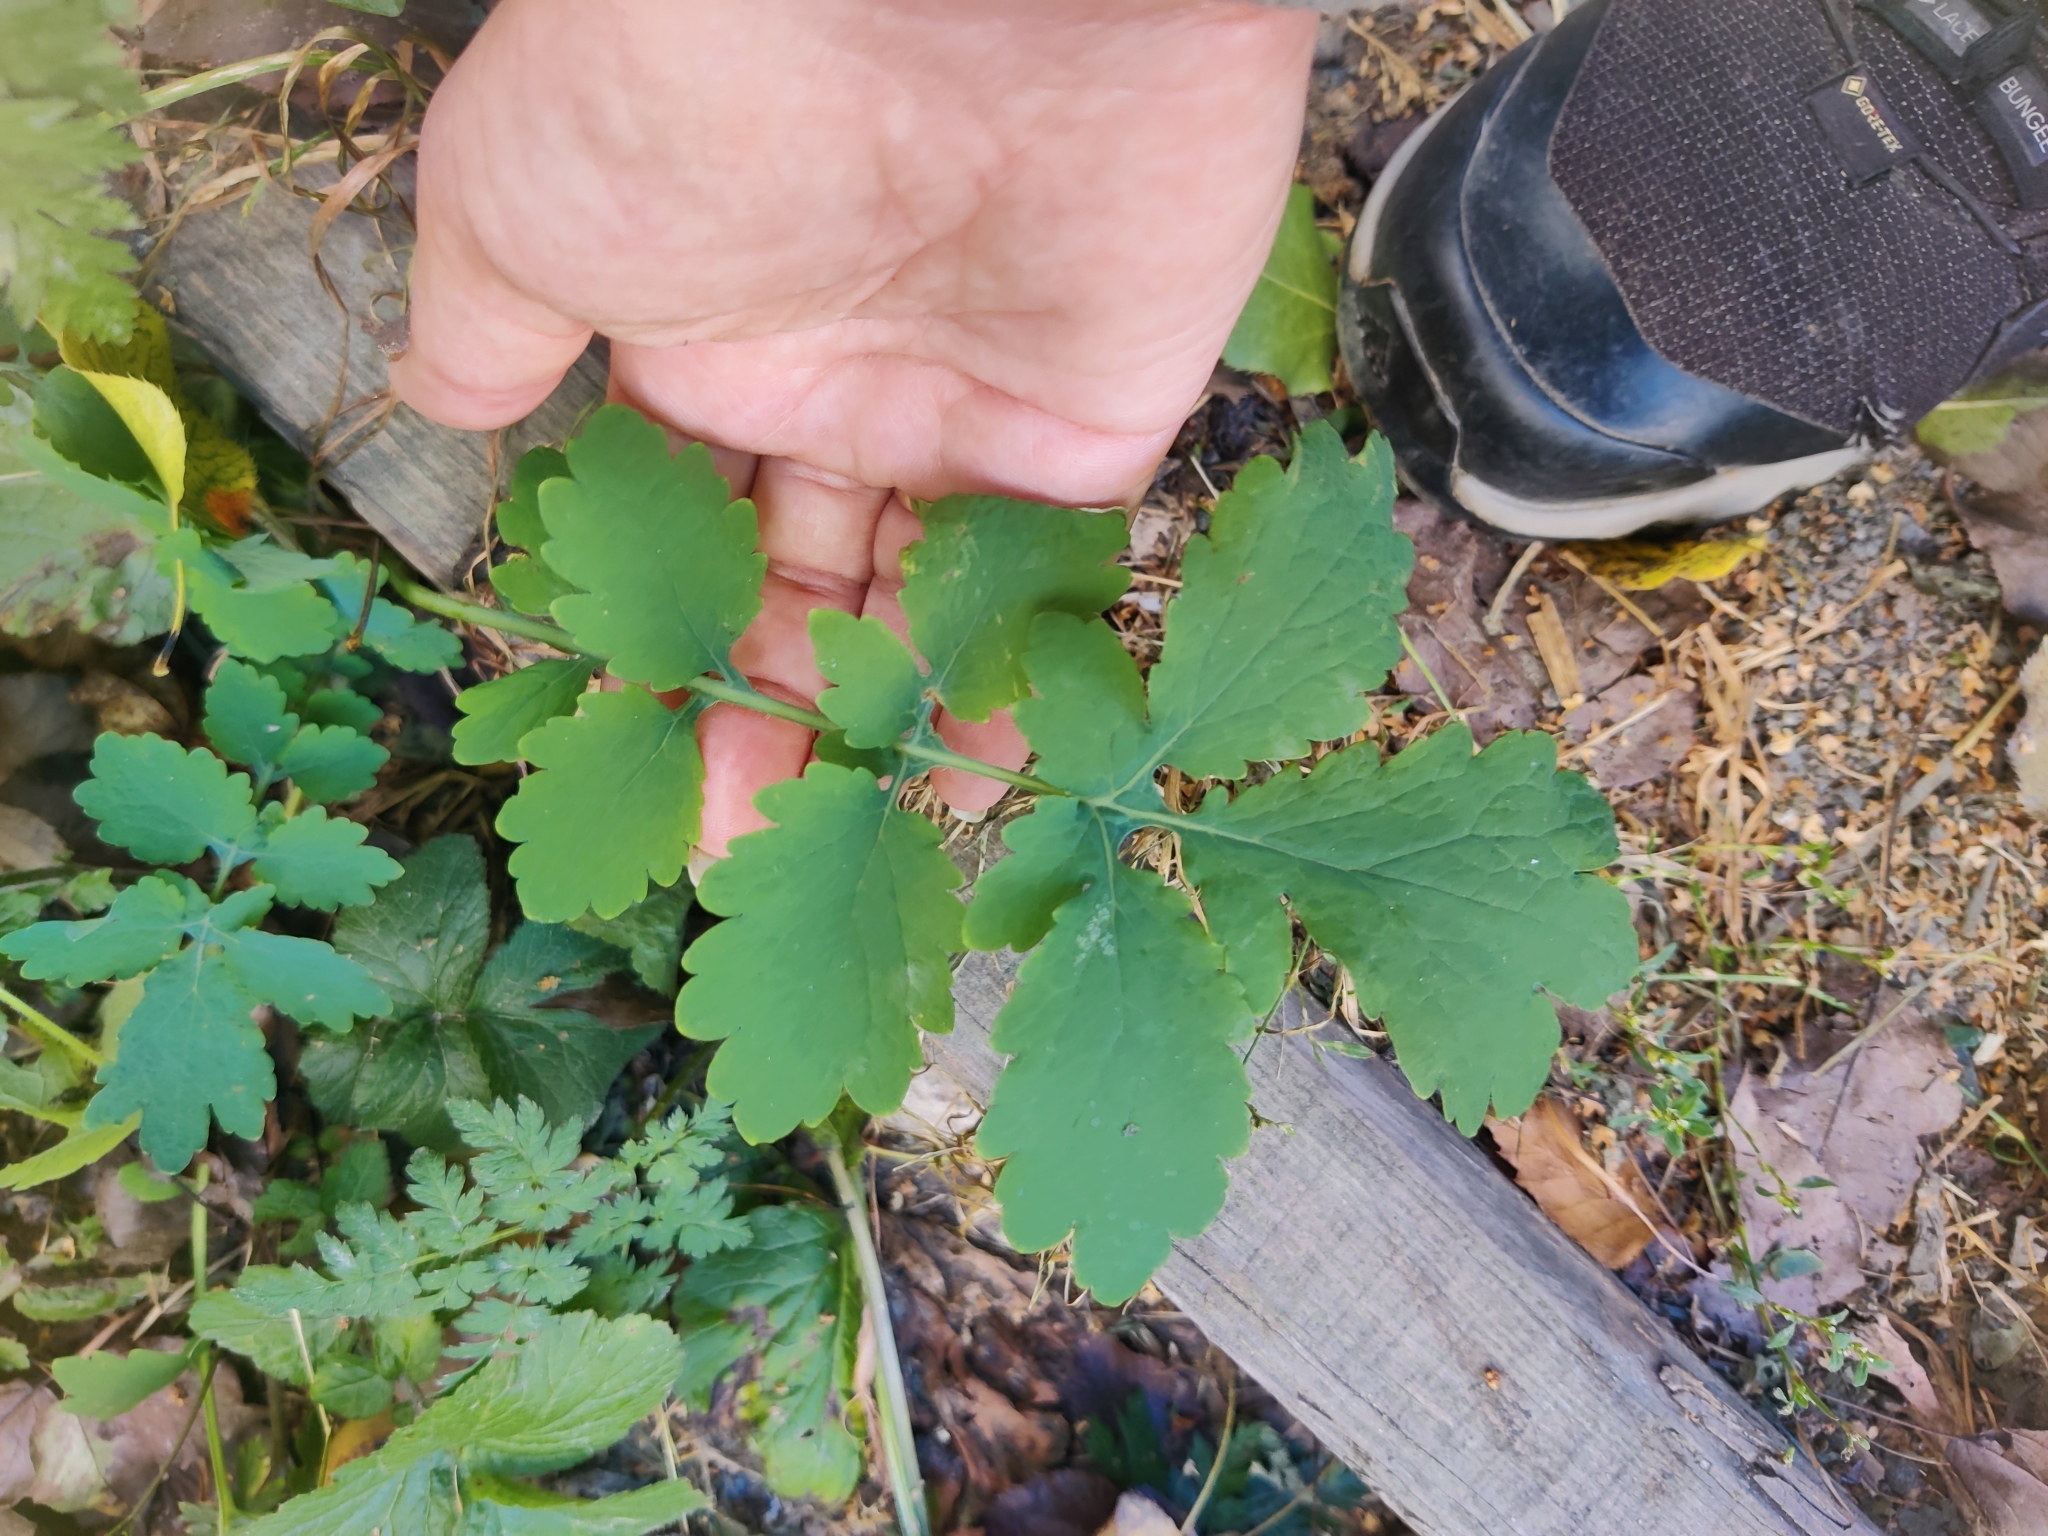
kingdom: Plantae
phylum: Tracheophyta
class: Magnoliopsida
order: Ranunculales
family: Papaveraceae
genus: Chelidonium
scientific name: Chelidonium majus
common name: Greater celandine
